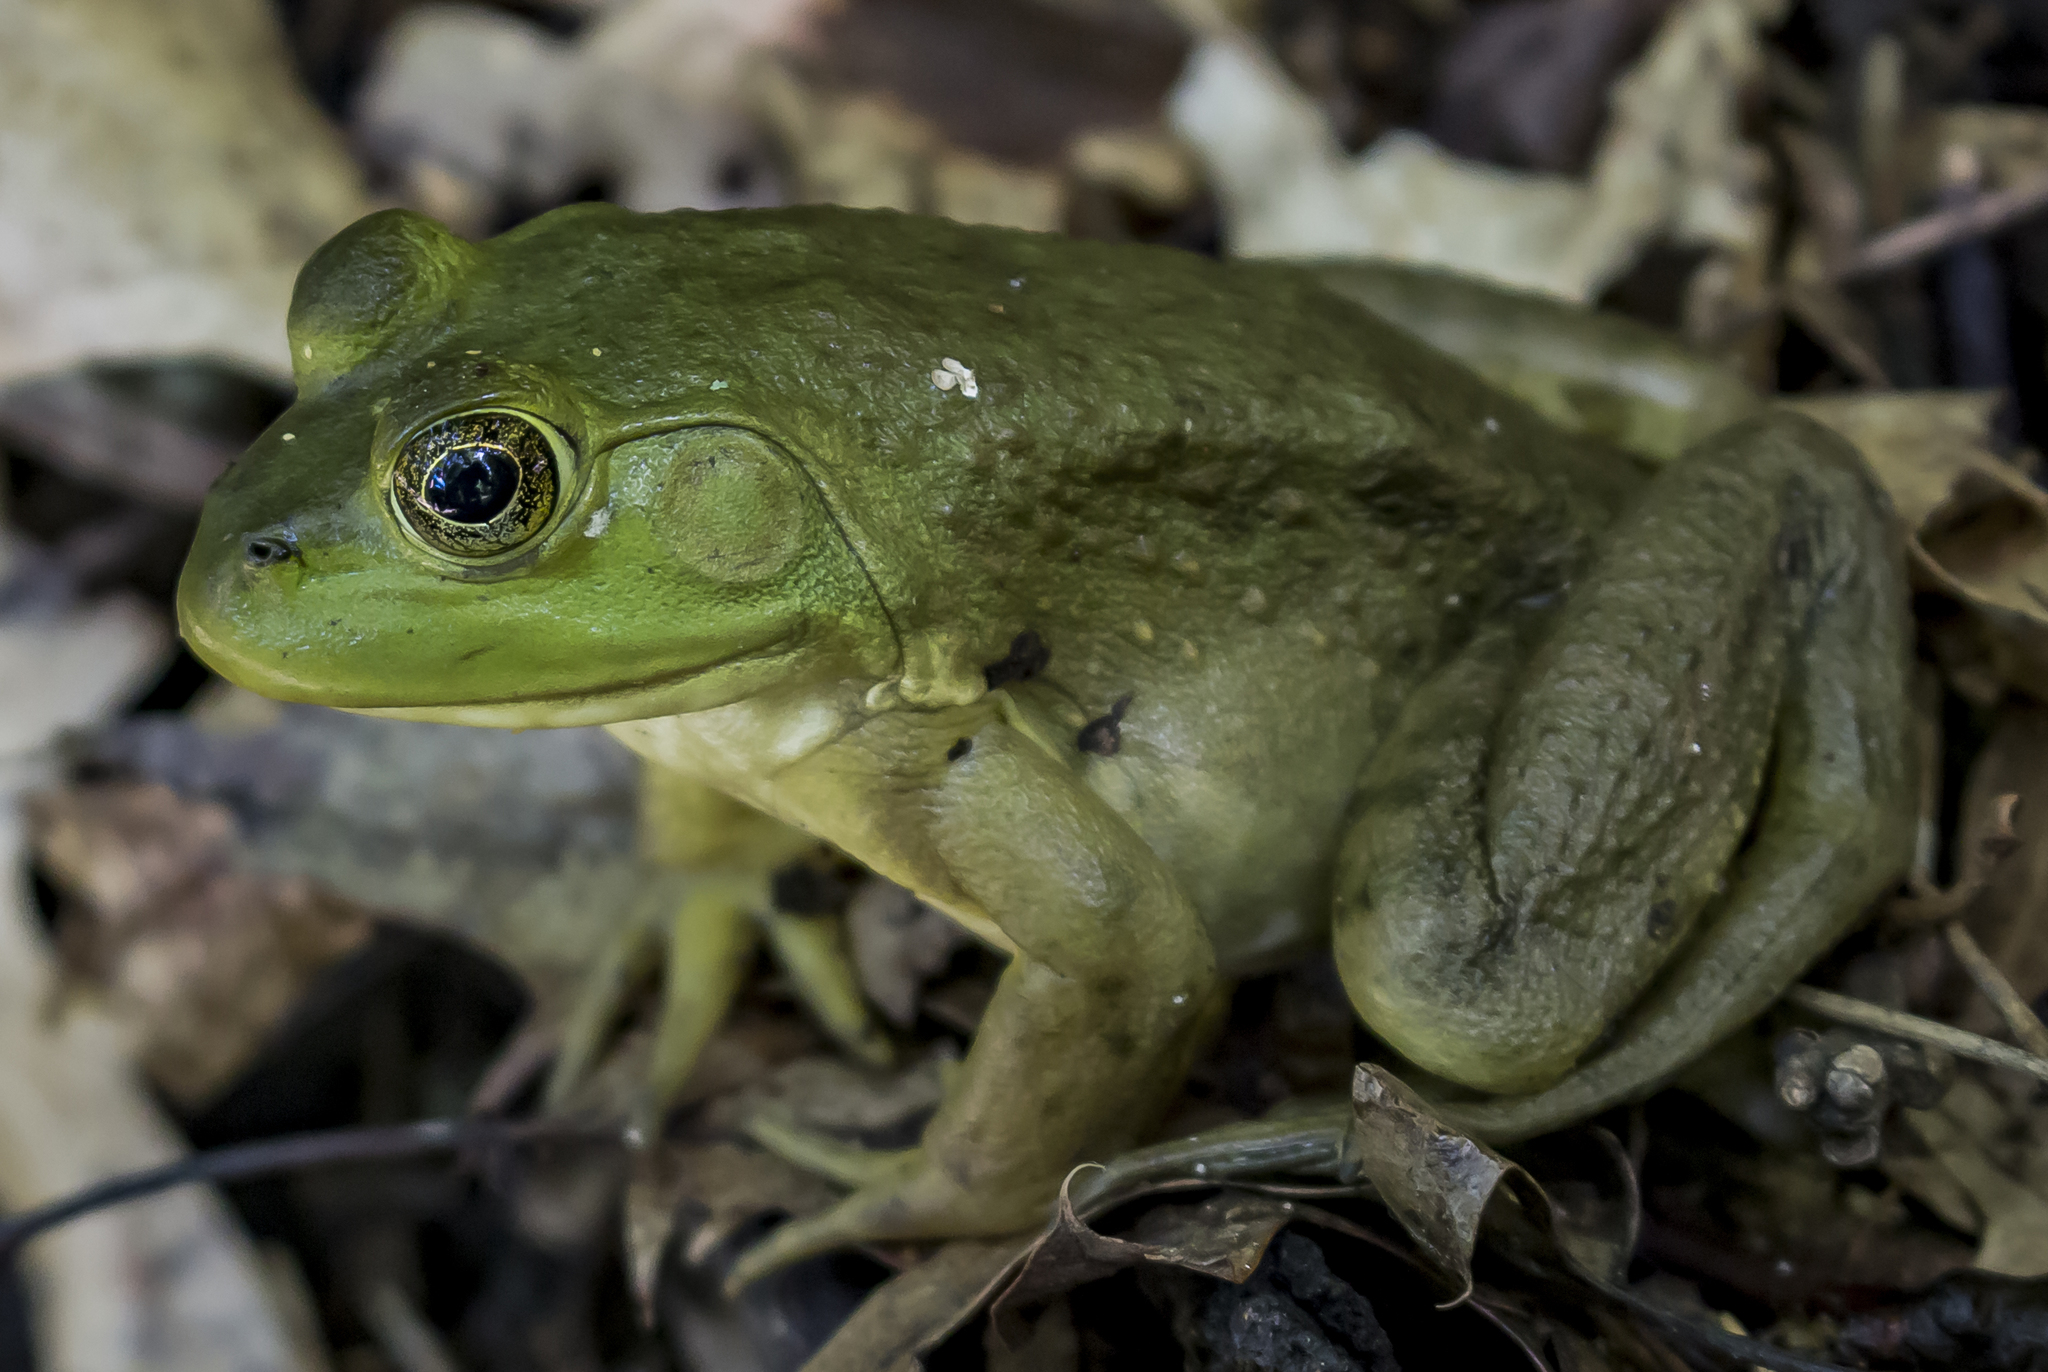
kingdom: Animalia
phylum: Chordata
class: Amphibia
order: Anura
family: Ranidae
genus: Lithobates
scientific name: Lithobates catesbeianus
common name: American bullfrog
